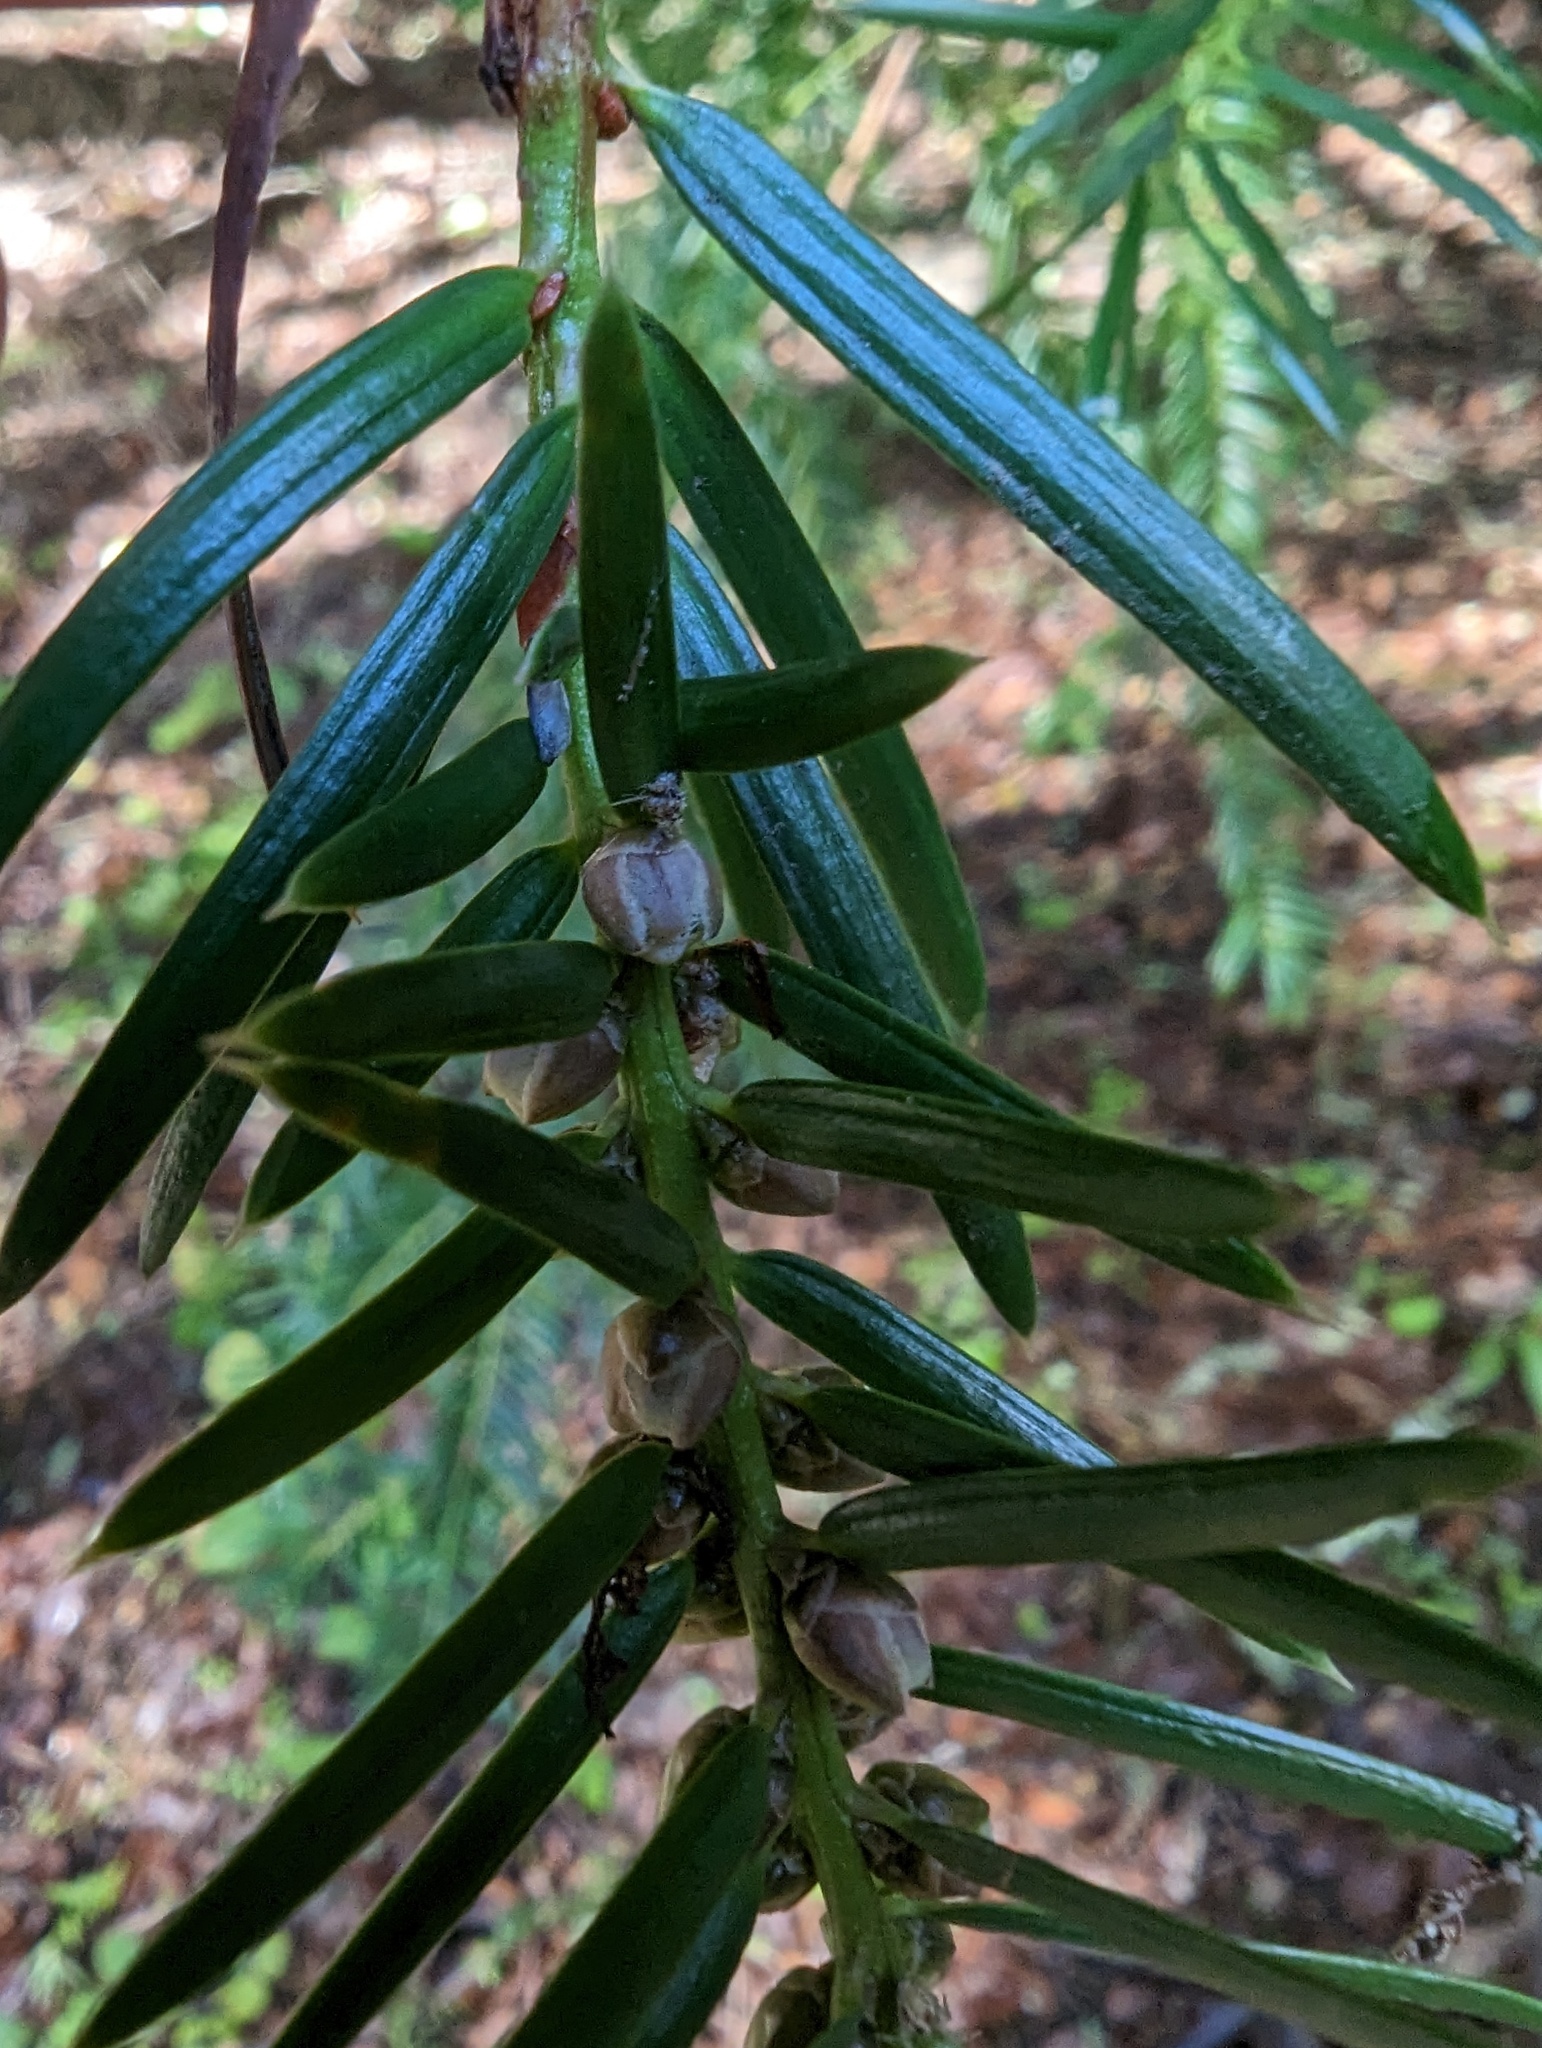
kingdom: Plantae
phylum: Tracheophyta
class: Pinopsida
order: Pinales
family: Taxaceae
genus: Torreya
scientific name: Torreya californica
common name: California torreya
